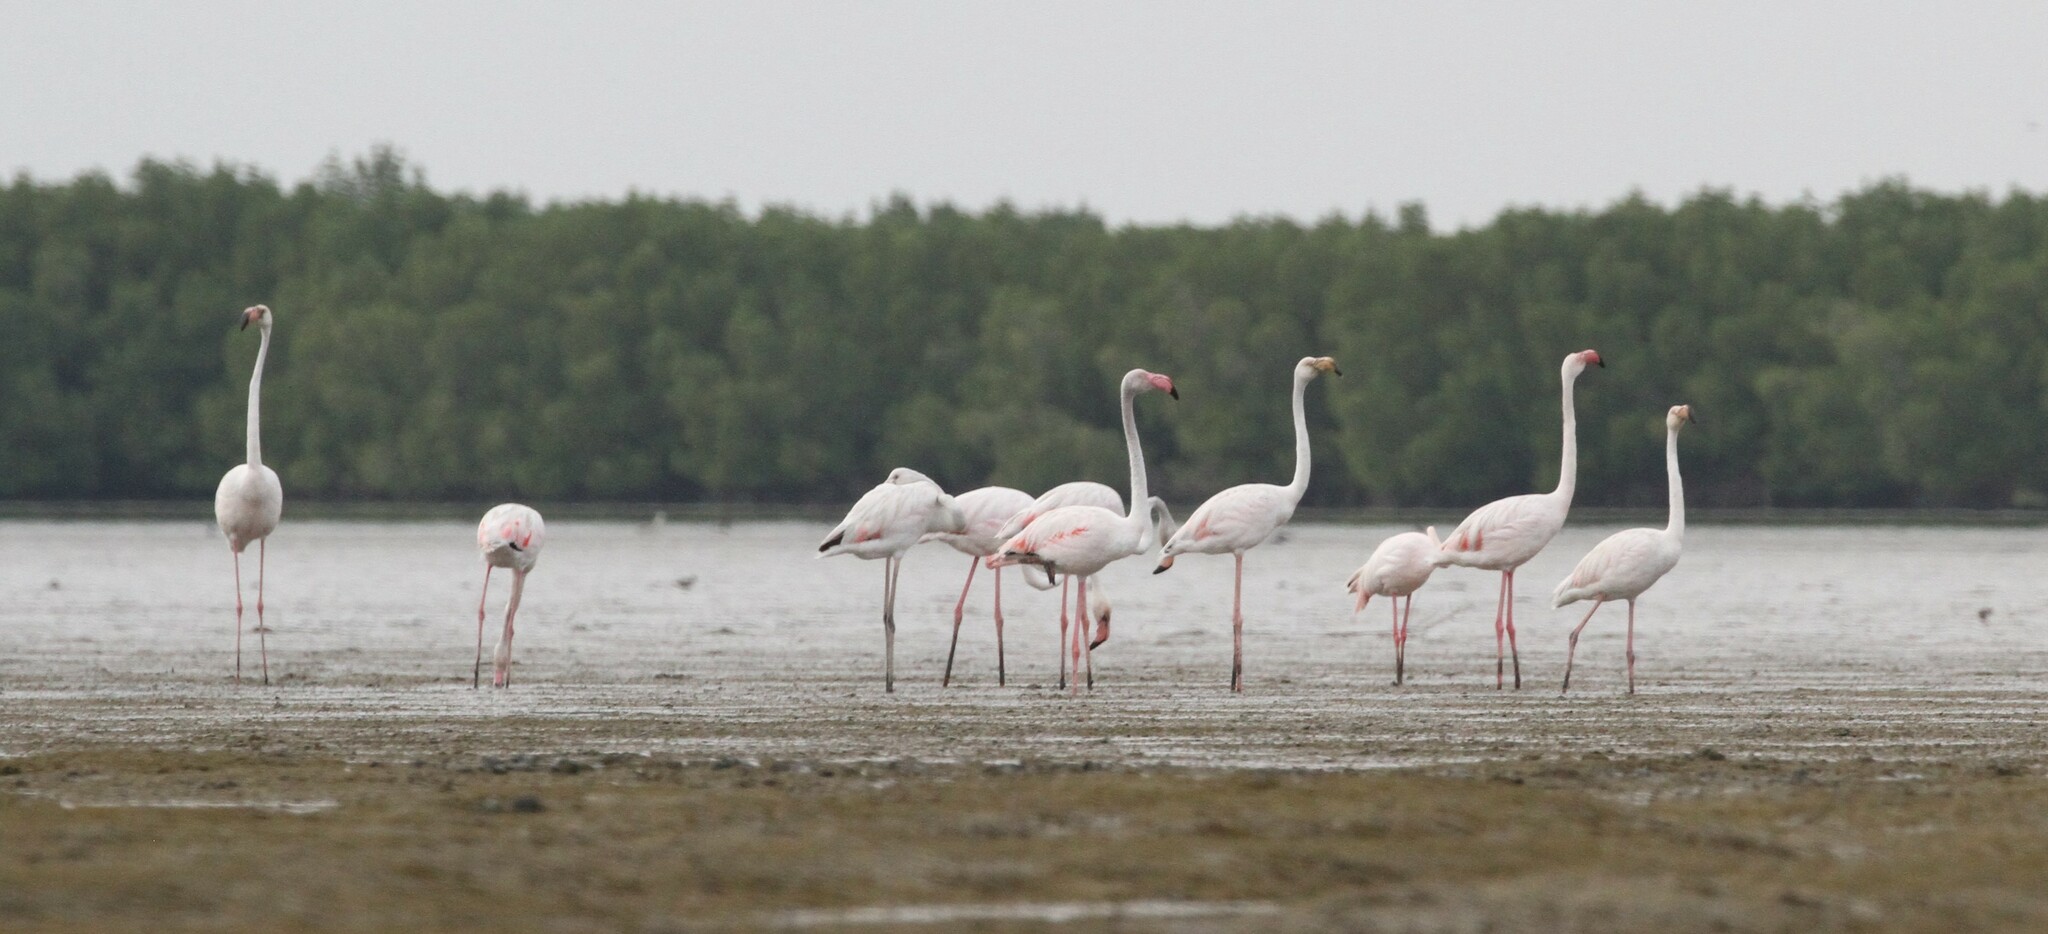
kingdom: Animalia
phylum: Chordata
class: Aves
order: Phoenicopteriformes
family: Phoenicopteridae
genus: Phoenicopterus
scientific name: Phoenicopterus roseus
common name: Greater flamingo
